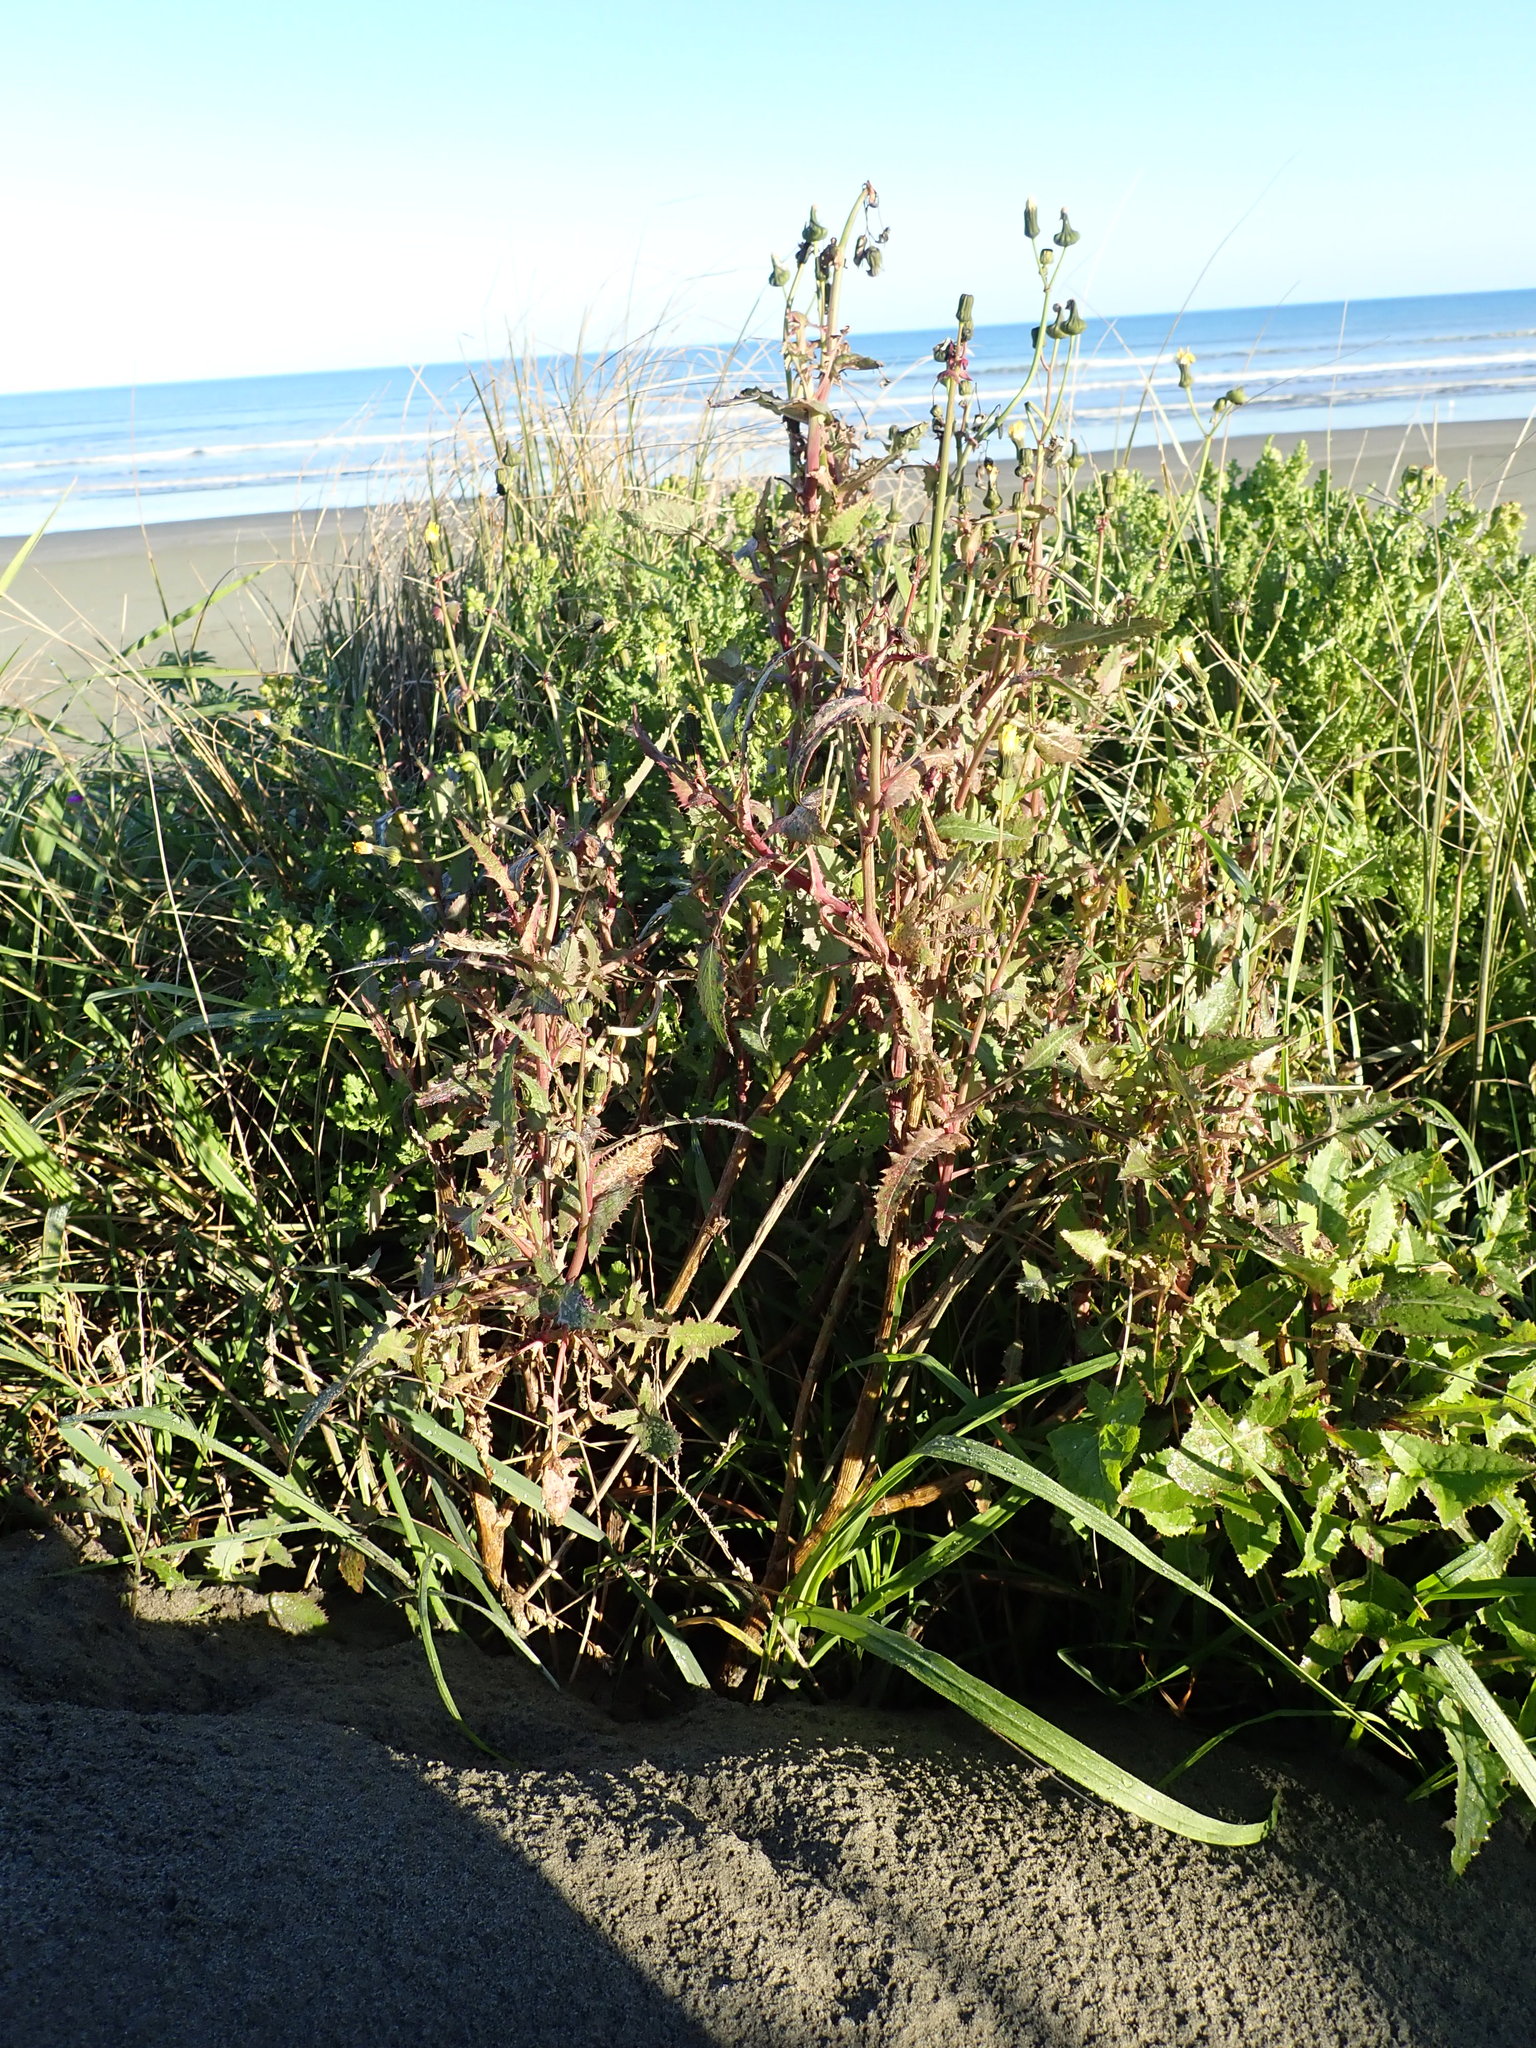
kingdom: Plantae
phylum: Tracheophyta
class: Magnoliopsida
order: Asterales
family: Asteraceae
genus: Sonchus
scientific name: Sonchus oleraceus
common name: Common sowthistle
